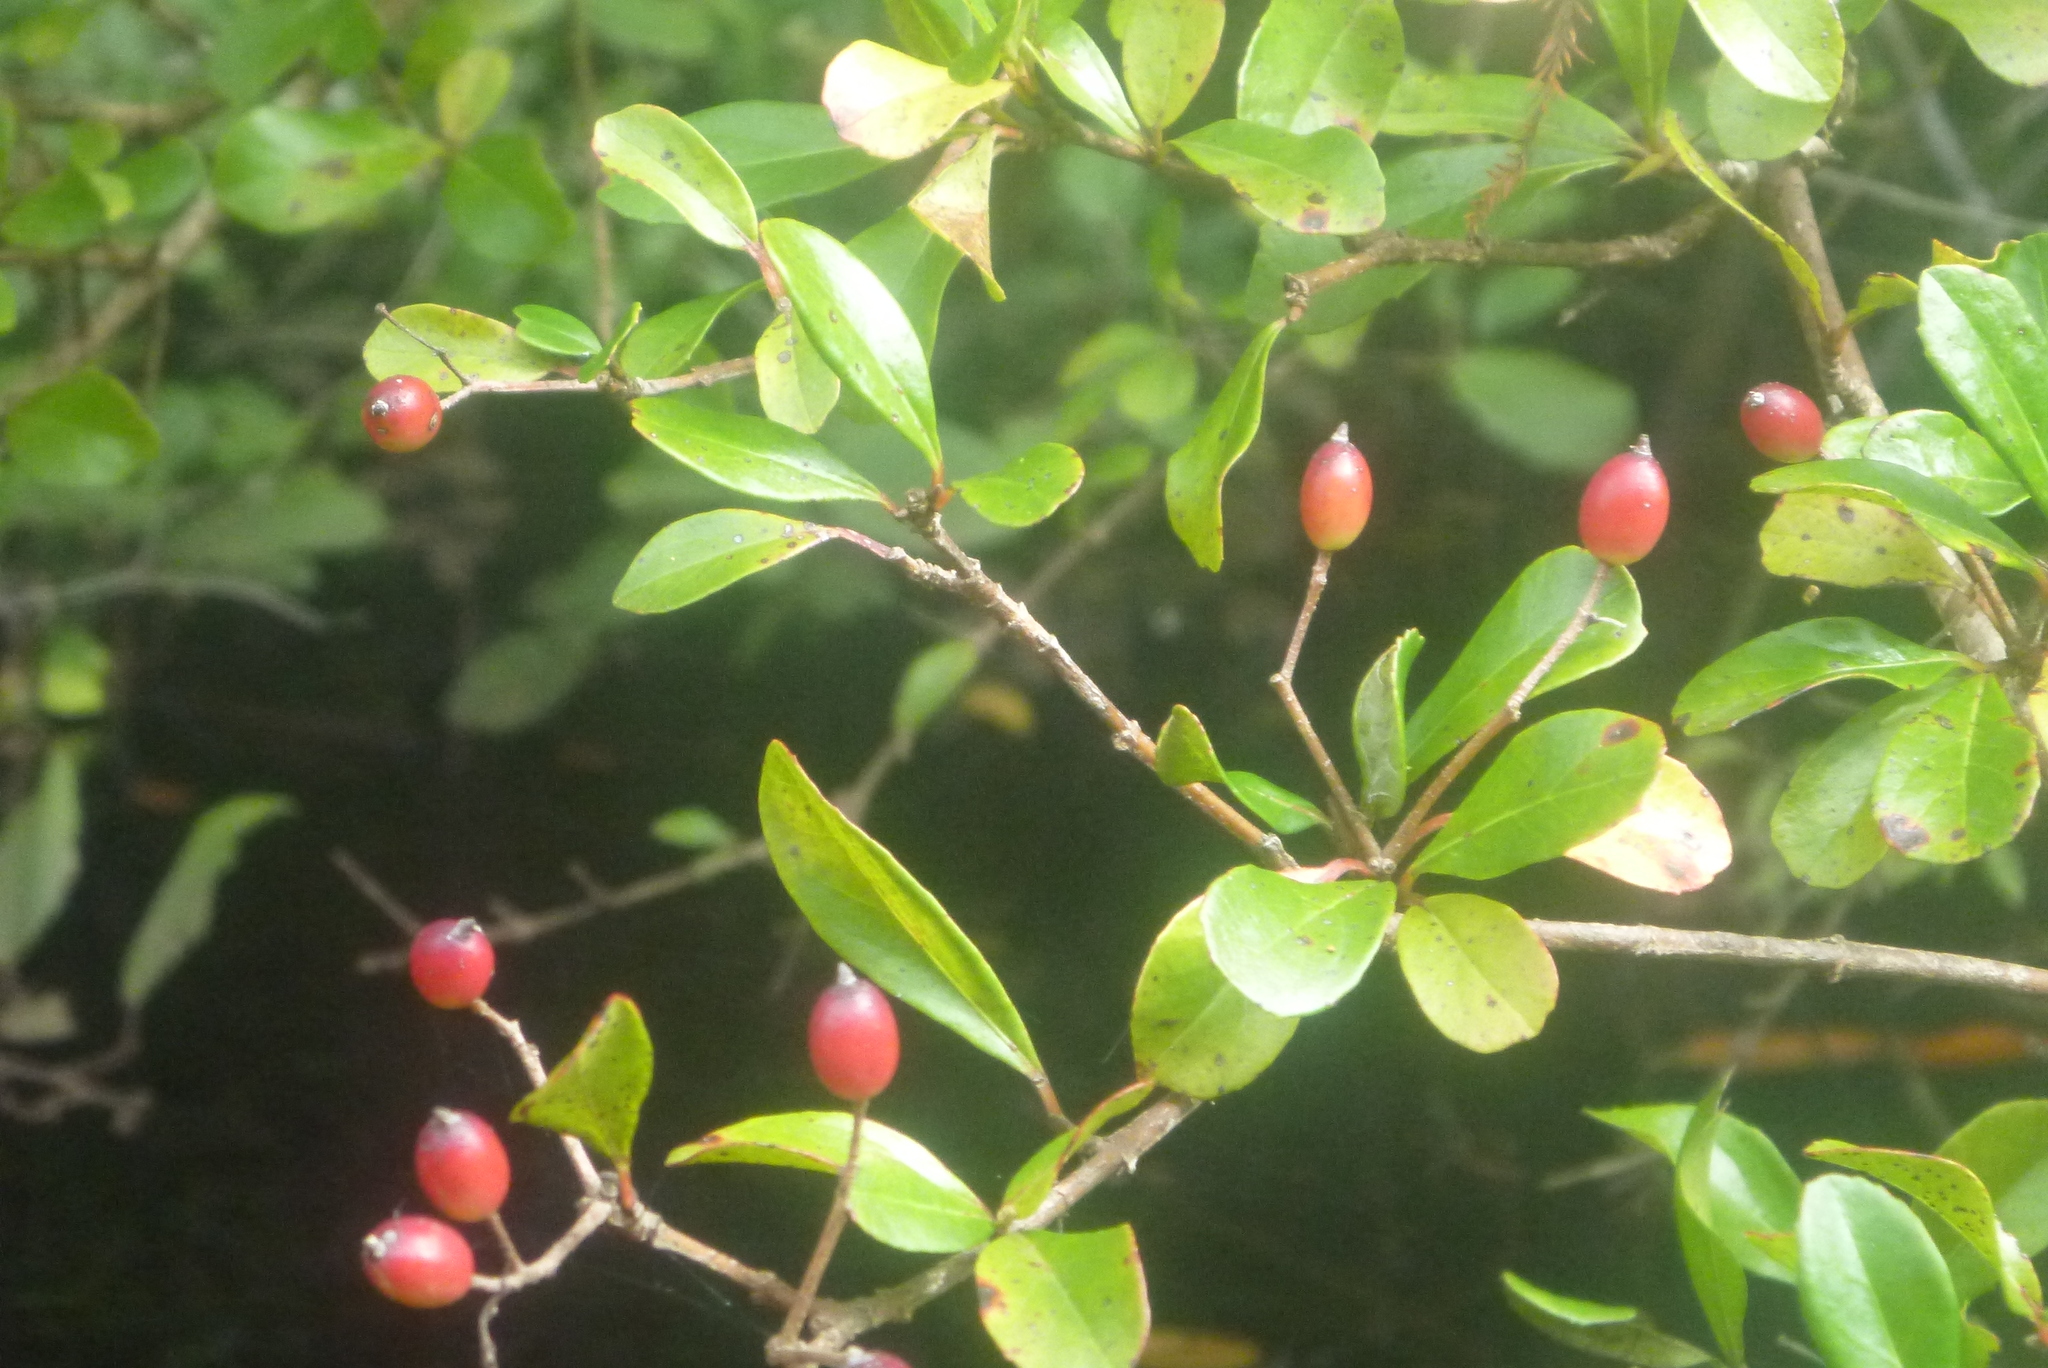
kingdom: Plantae
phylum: Tracheophyta
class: Magnoliopsida
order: Dipsacales
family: Viburnaceae
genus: Viburnum
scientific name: Viburnum obovatum
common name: Walter's viburnum
